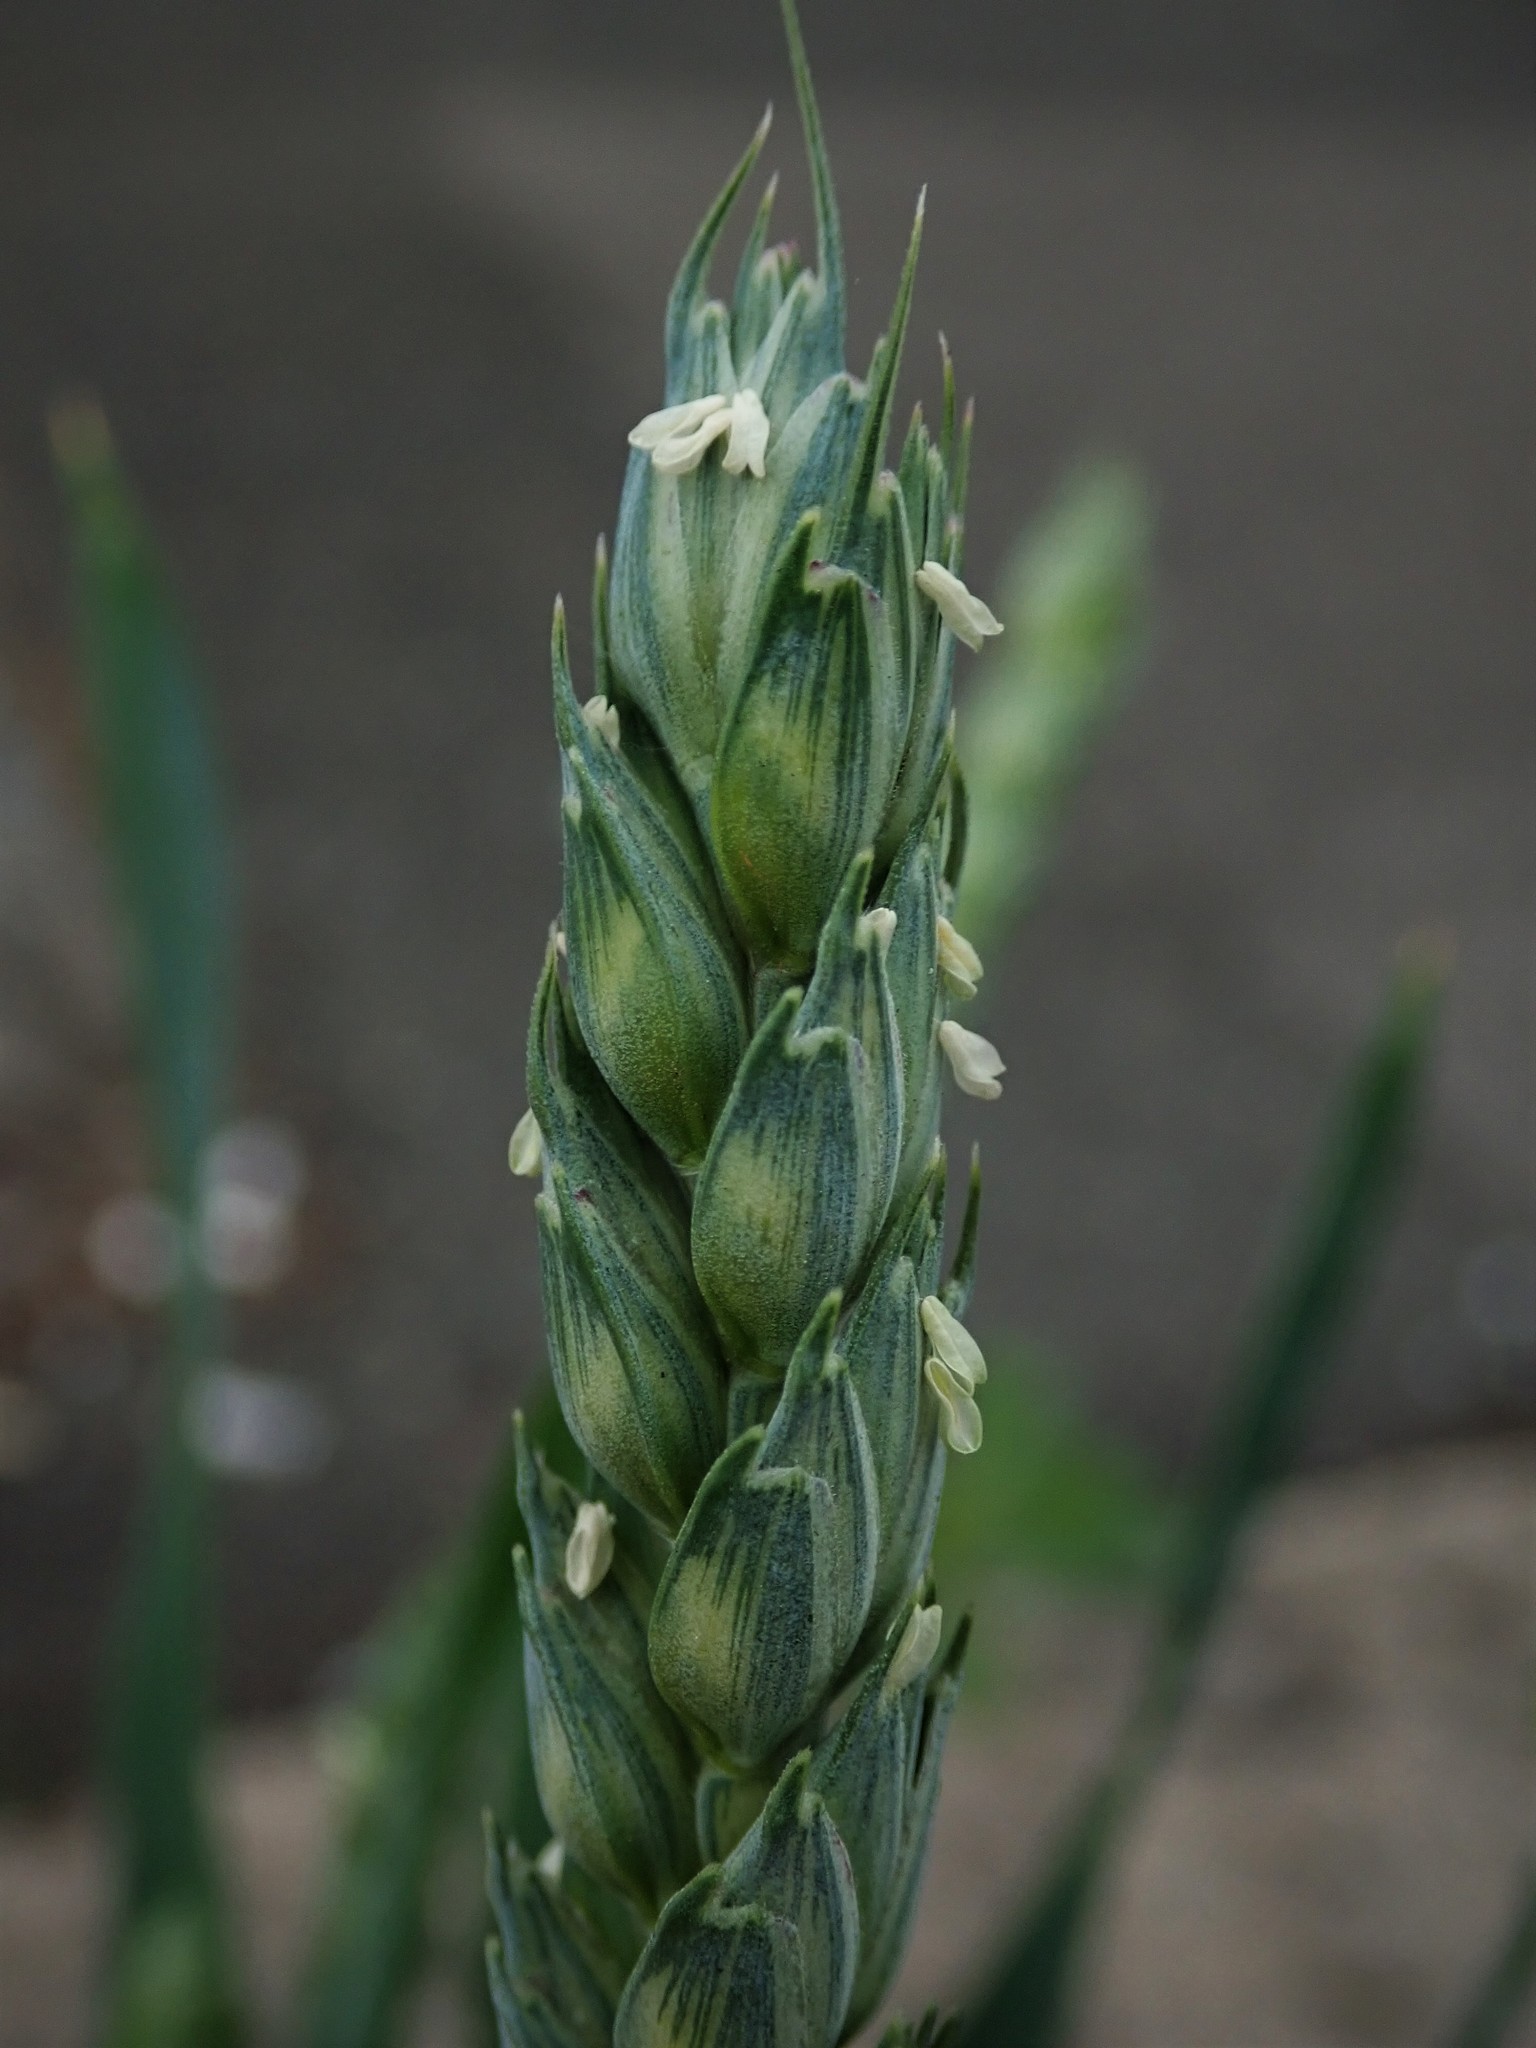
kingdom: Plantae
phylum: Tracheophyta
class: Liliopsida
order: Poales
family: Poaceae
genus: Triticum
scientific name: Triticum aestivum
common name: Common wheat
